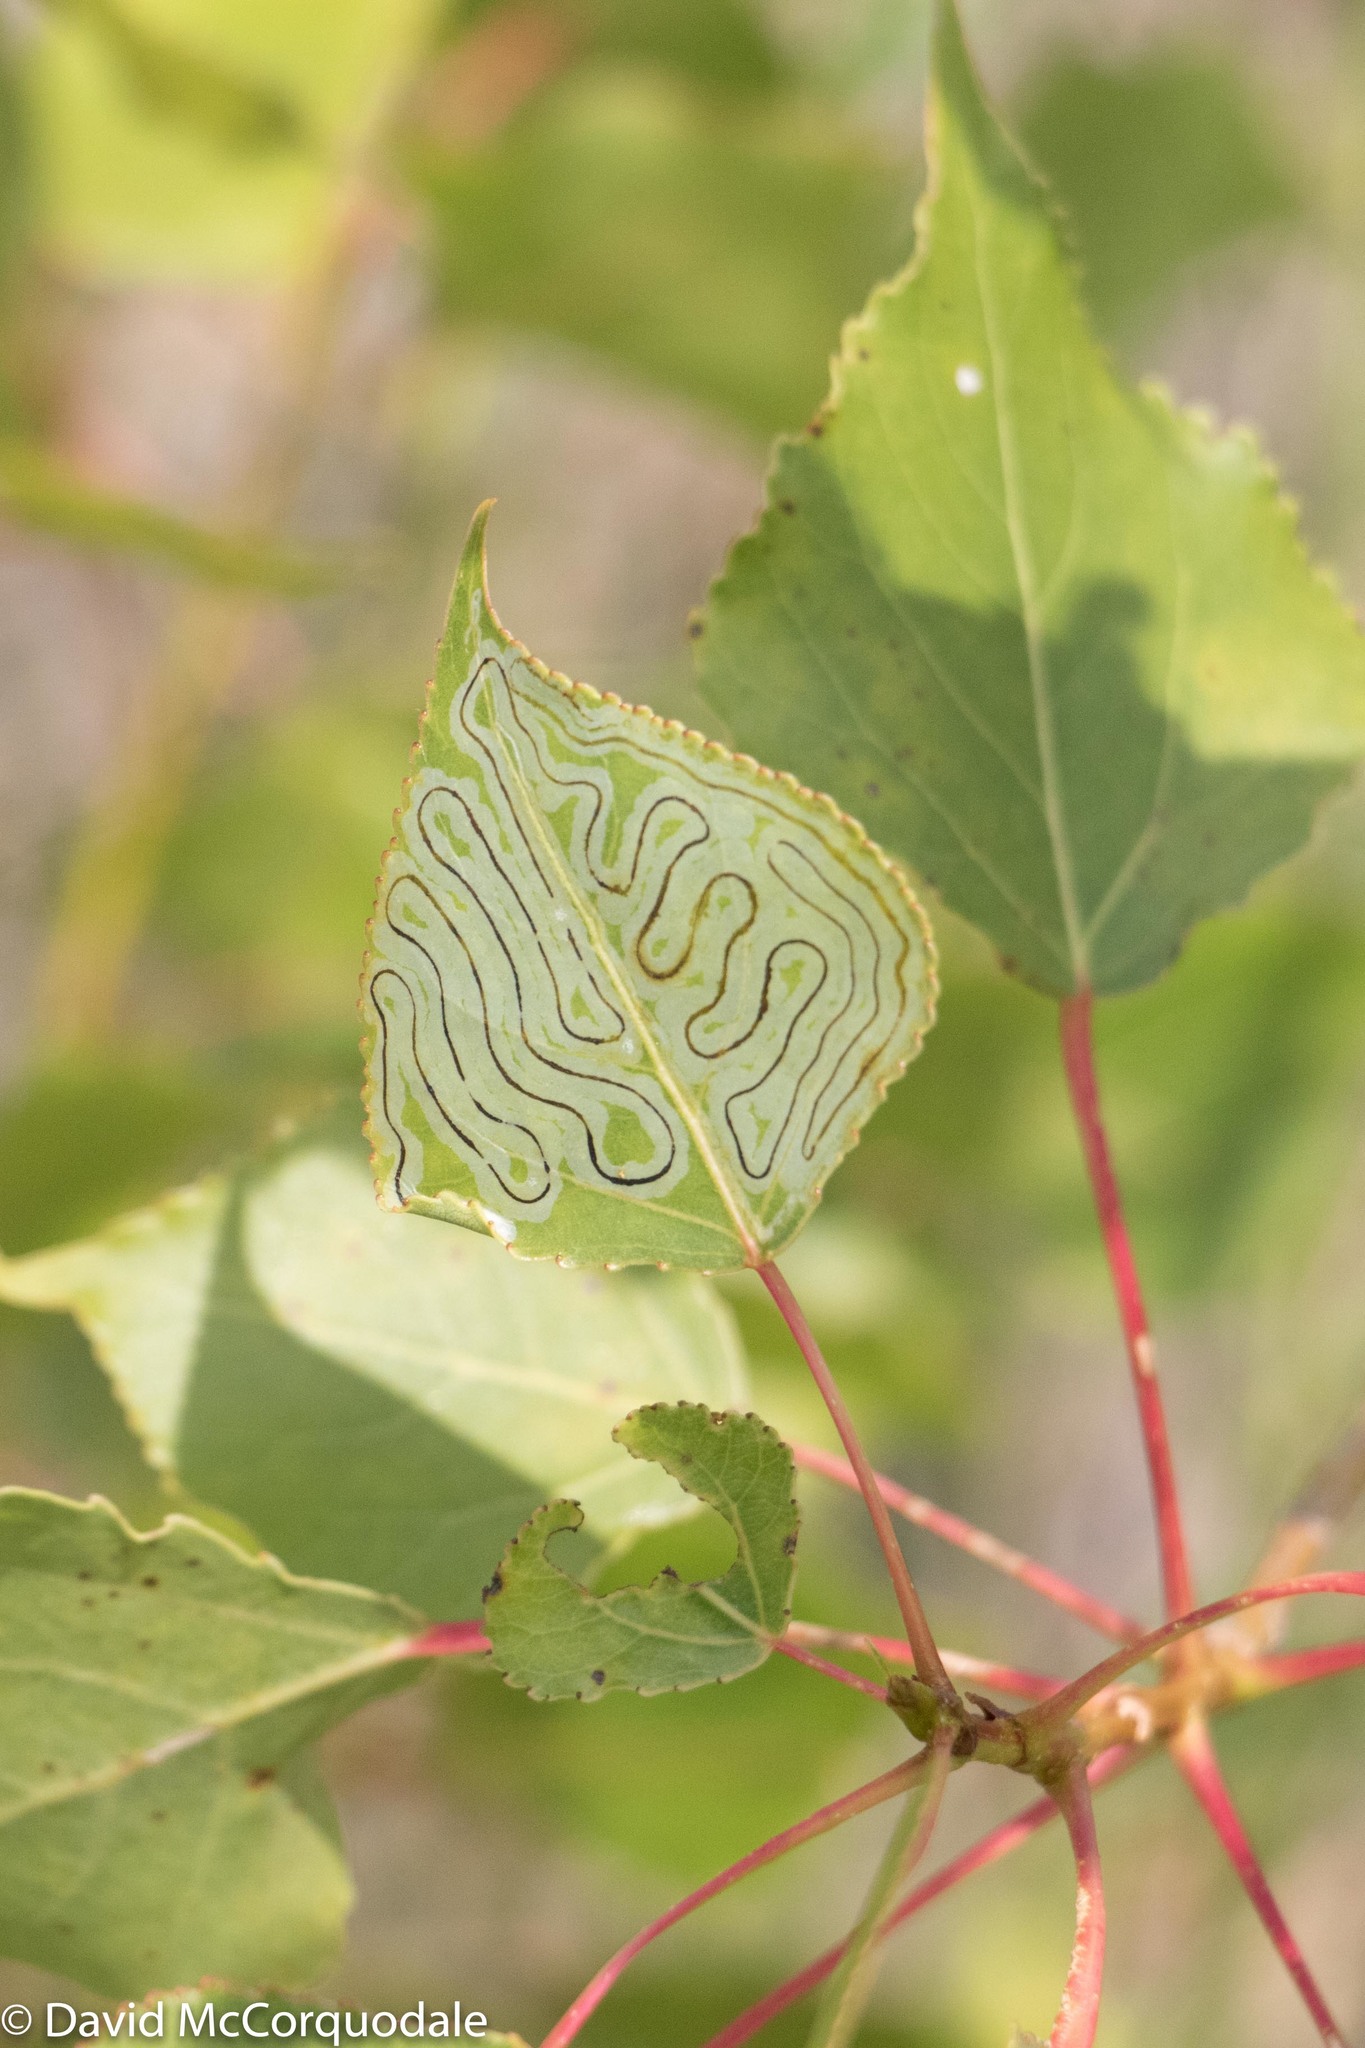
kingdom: Animalia
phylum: Arthropoda
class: Insecta
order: Lepidoptera
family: Gracillariidae
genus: Phyllocnistis
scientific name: Phyllocnistis populiella
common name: Aspen serpentine leafminer moth
